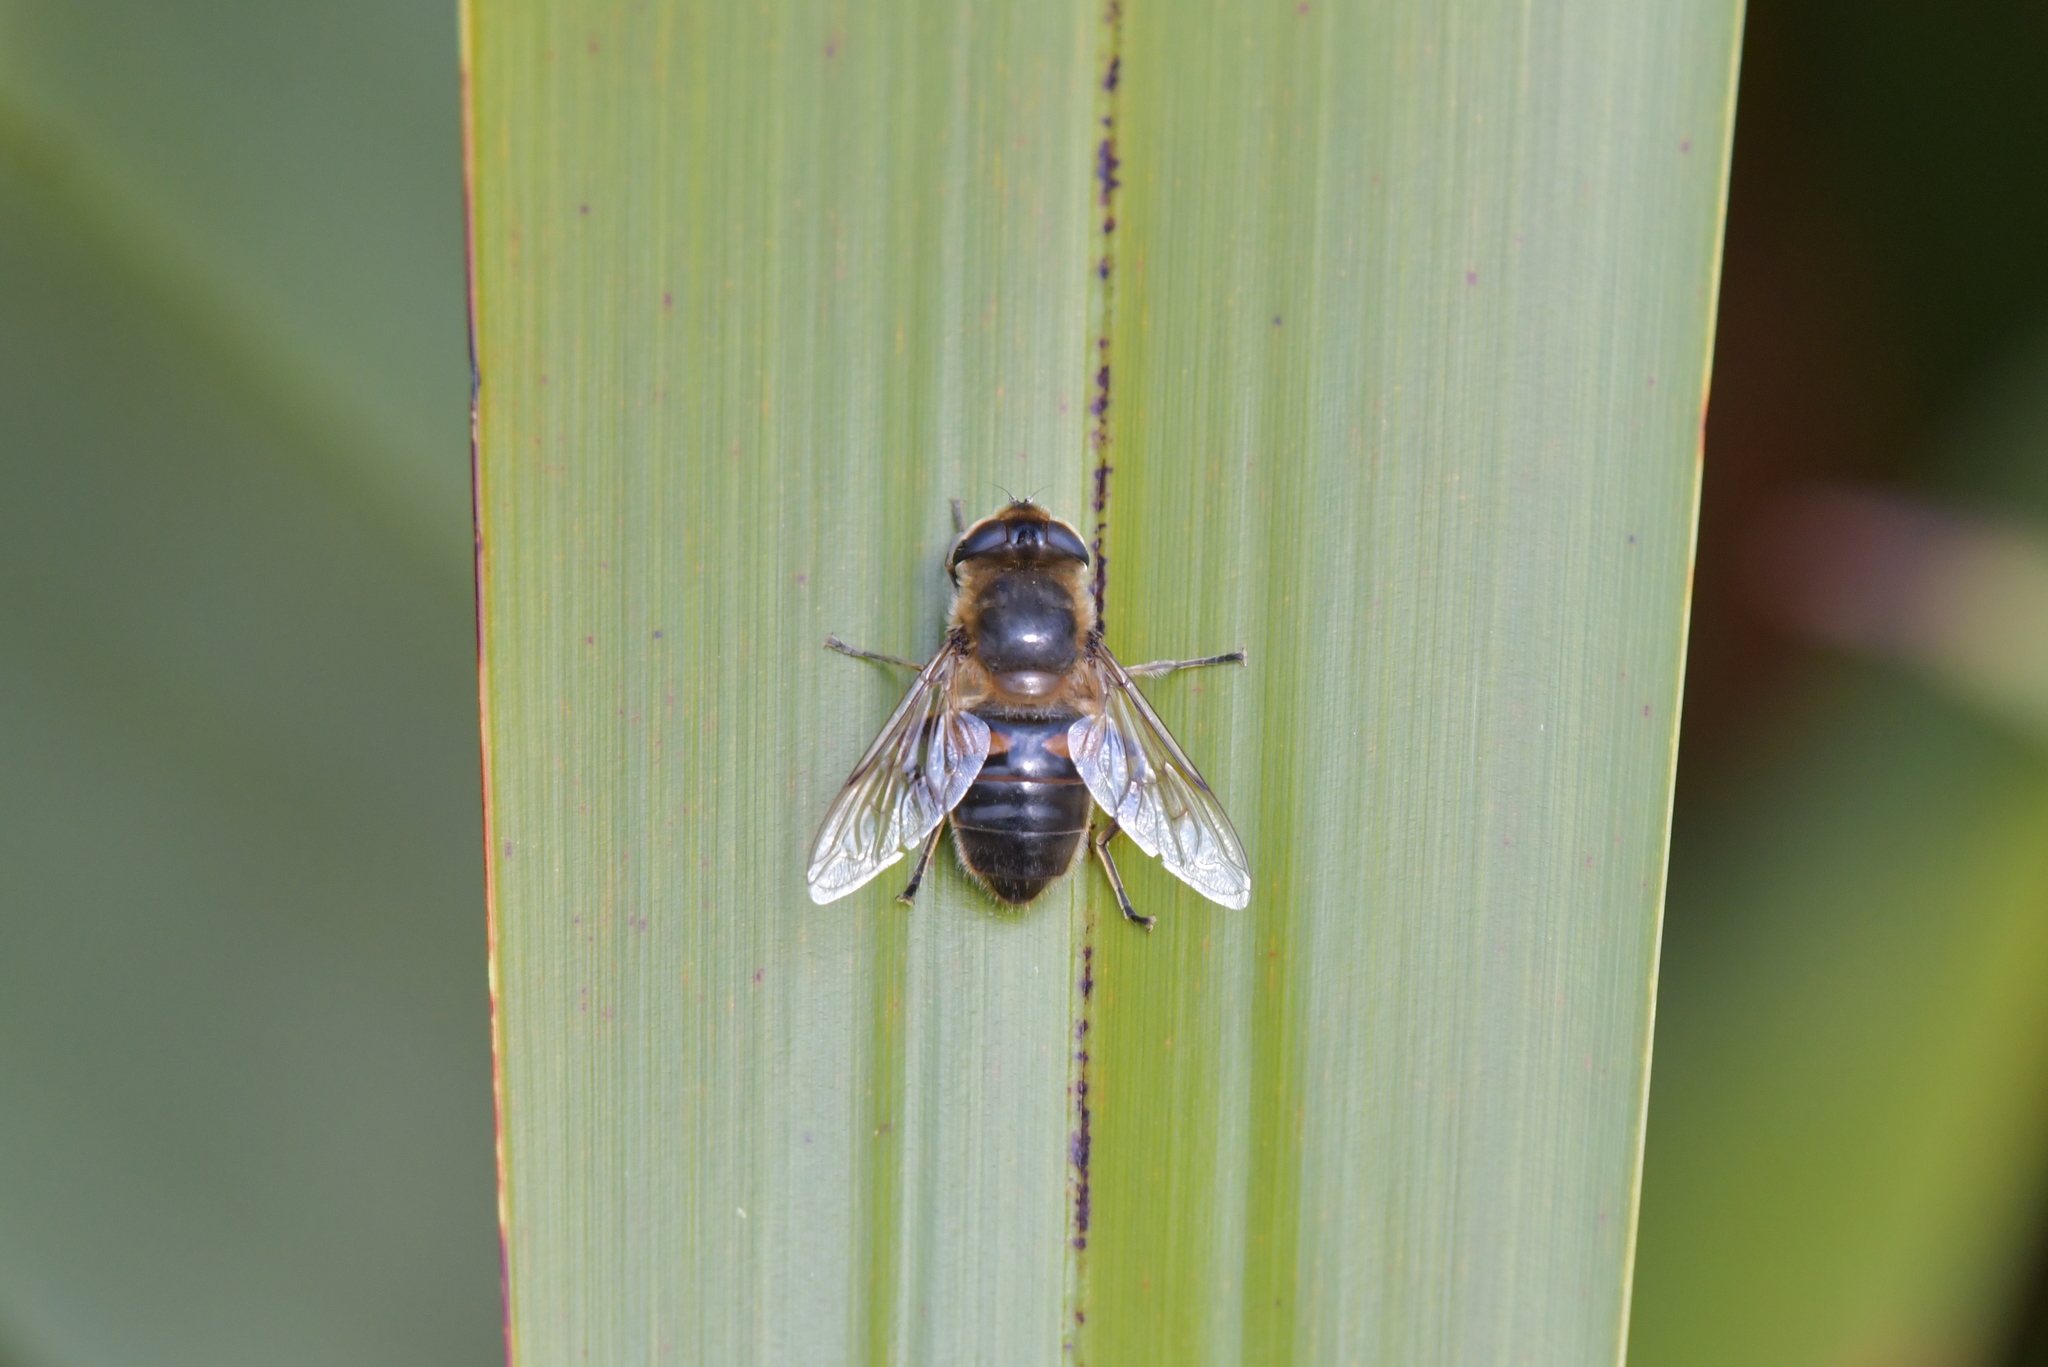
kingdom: Animalia
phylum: Arthropoda
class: Insecta
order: Diptera
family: Syrphidae
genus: Eristalis
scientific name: Eristalis tenax
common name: Drone fly
